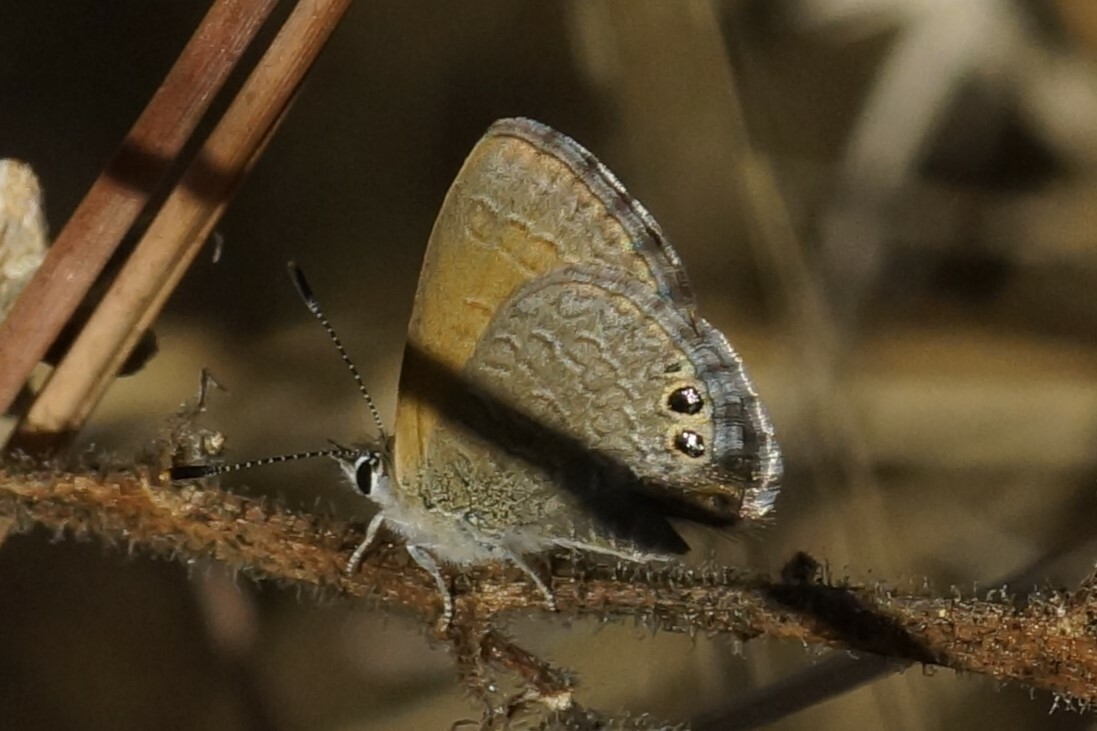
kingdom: Animalia
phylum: Arthropoda
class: Insecta
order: Lepidoptera
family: Lycaenidae
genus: Nacaduba
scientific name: Nacaduba biocellata
